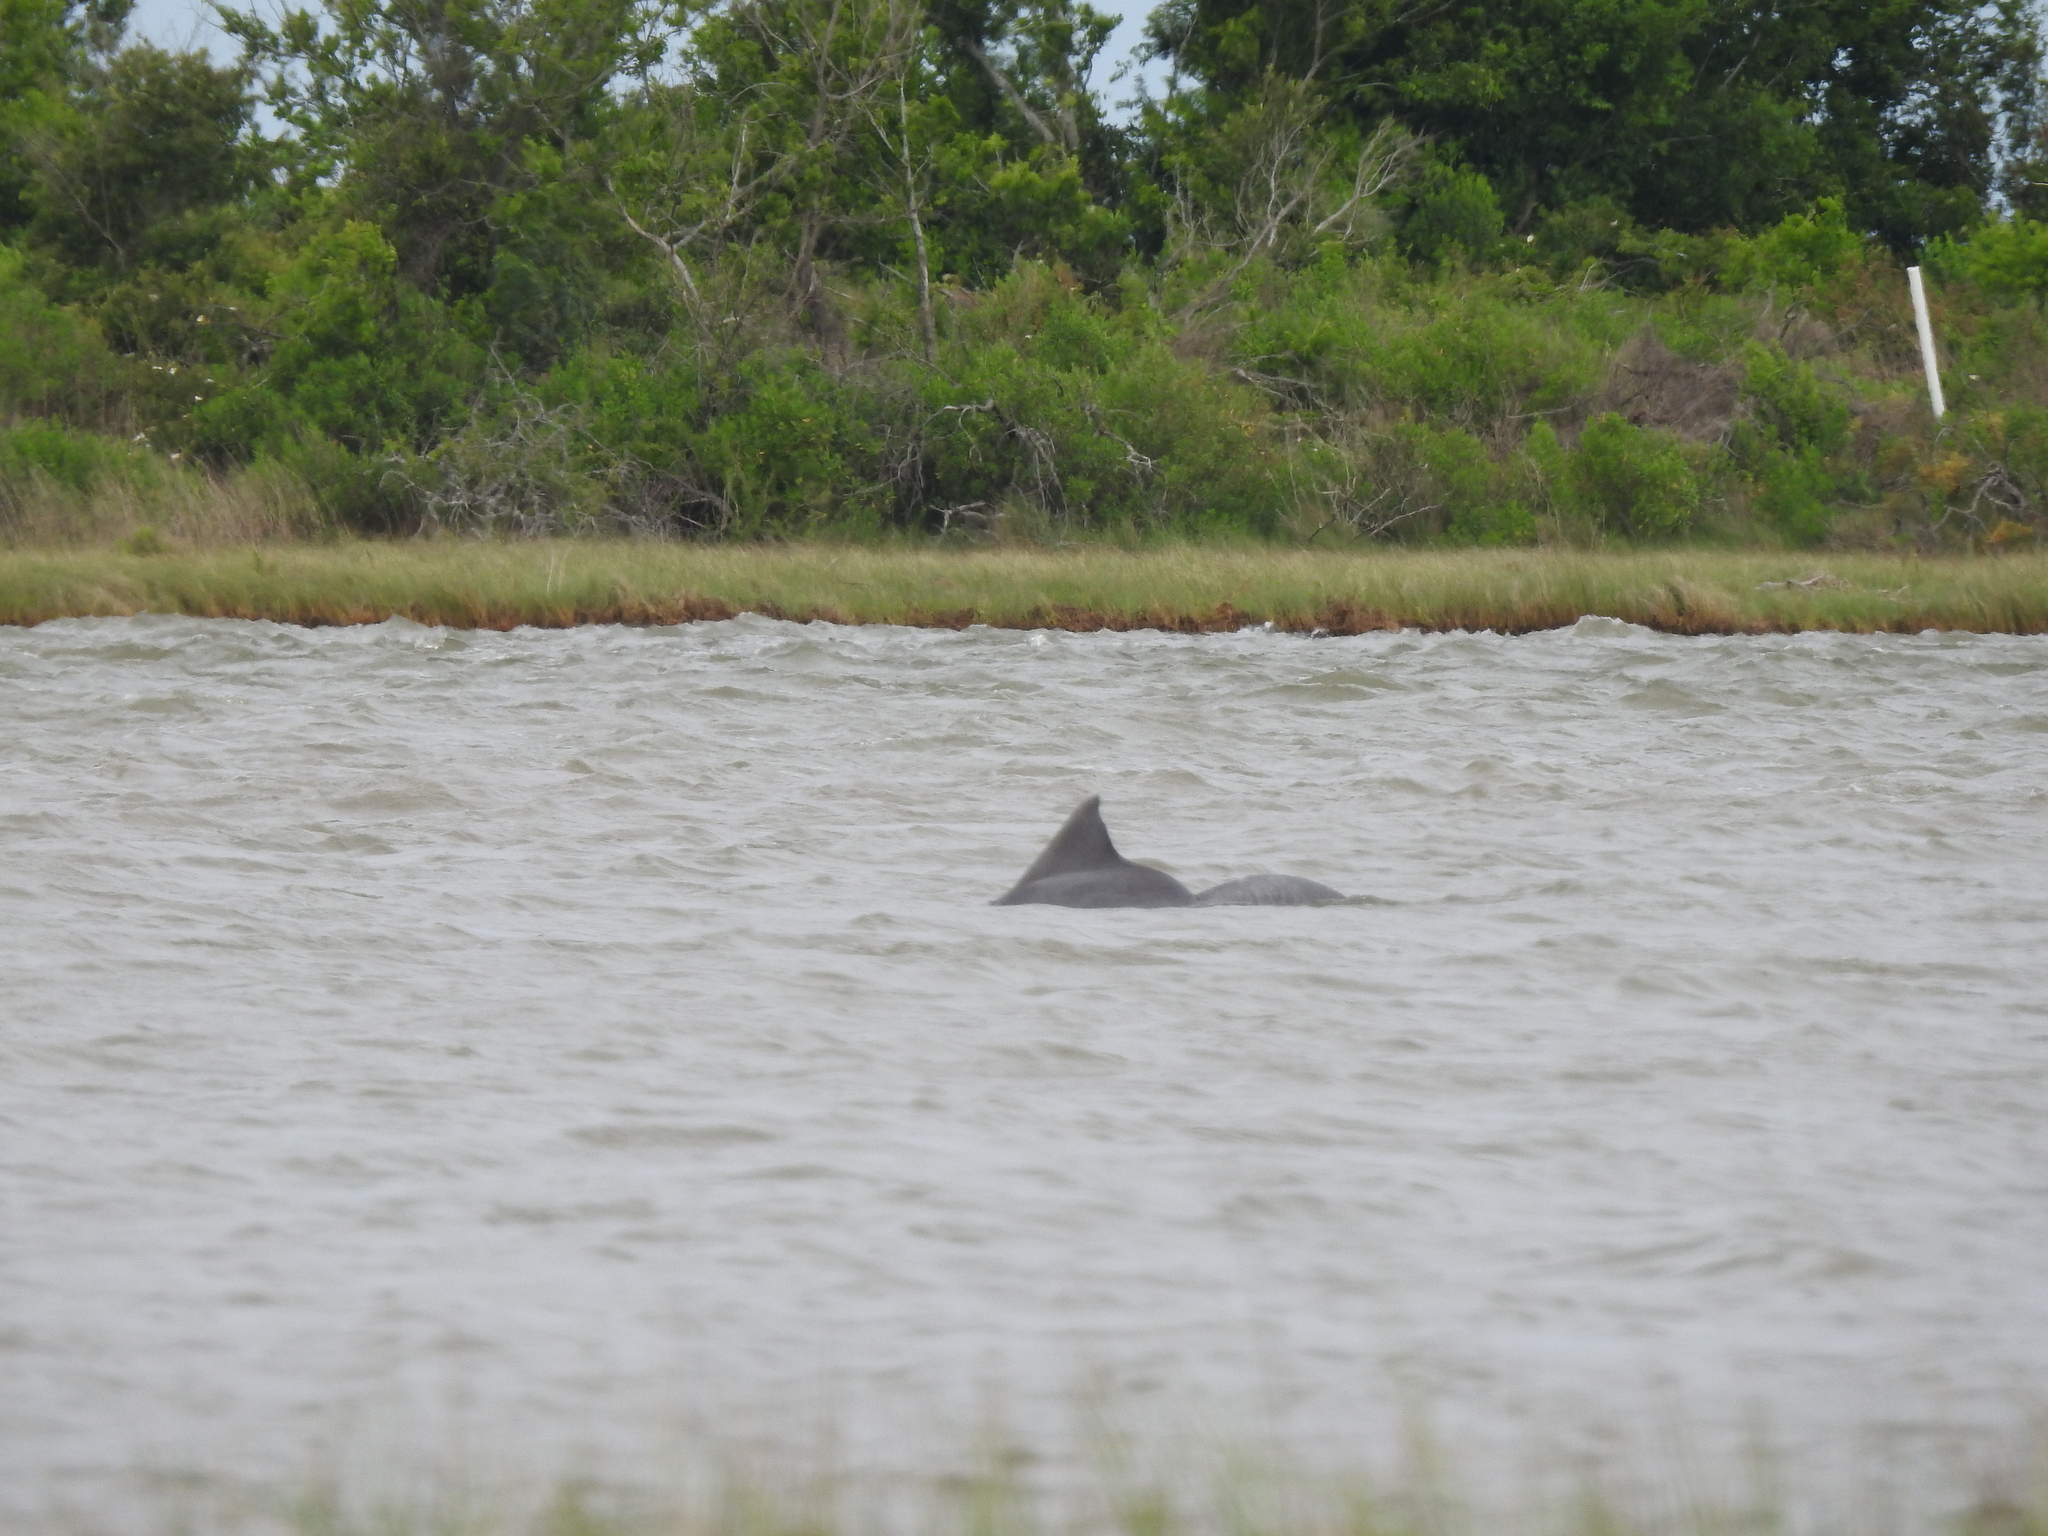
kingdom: Animalia
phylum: Chordata
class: Mammalia
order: Cetacea
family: Delphinidae
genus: Tursiops
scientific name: Tursiops truncatus
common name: Bottlenose dolphin
